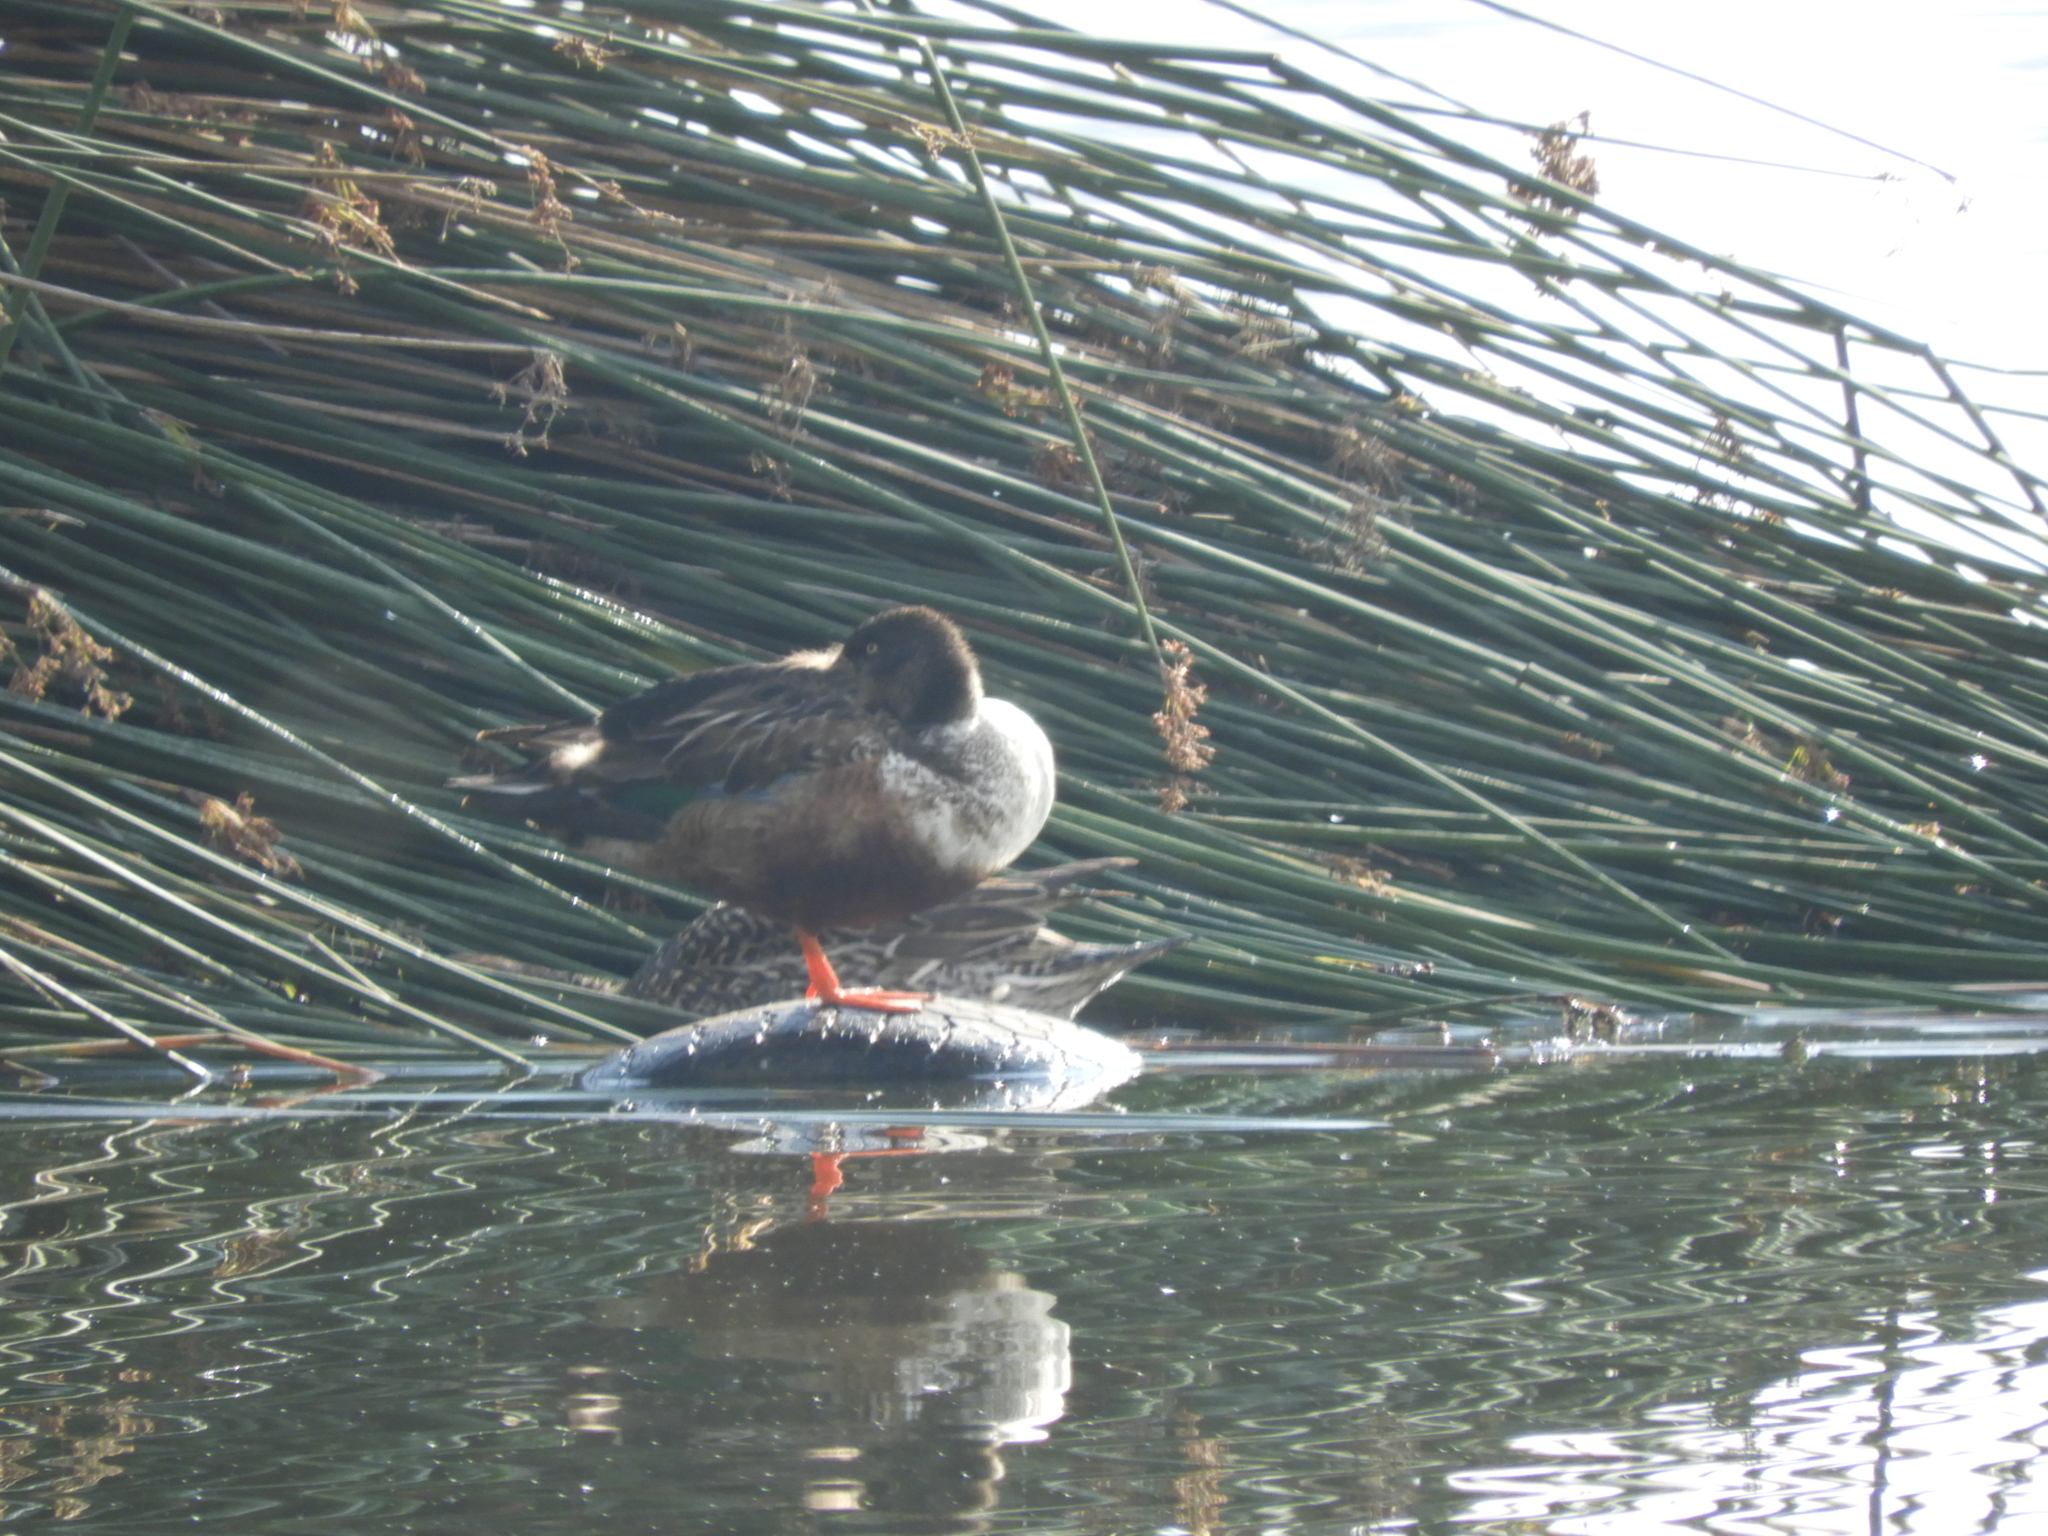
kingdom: Animalia
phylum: Chordata
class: Aves
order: Anseriformes
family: Anatidae
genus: Anas
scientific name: Anas acuta
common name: Northern pintail
